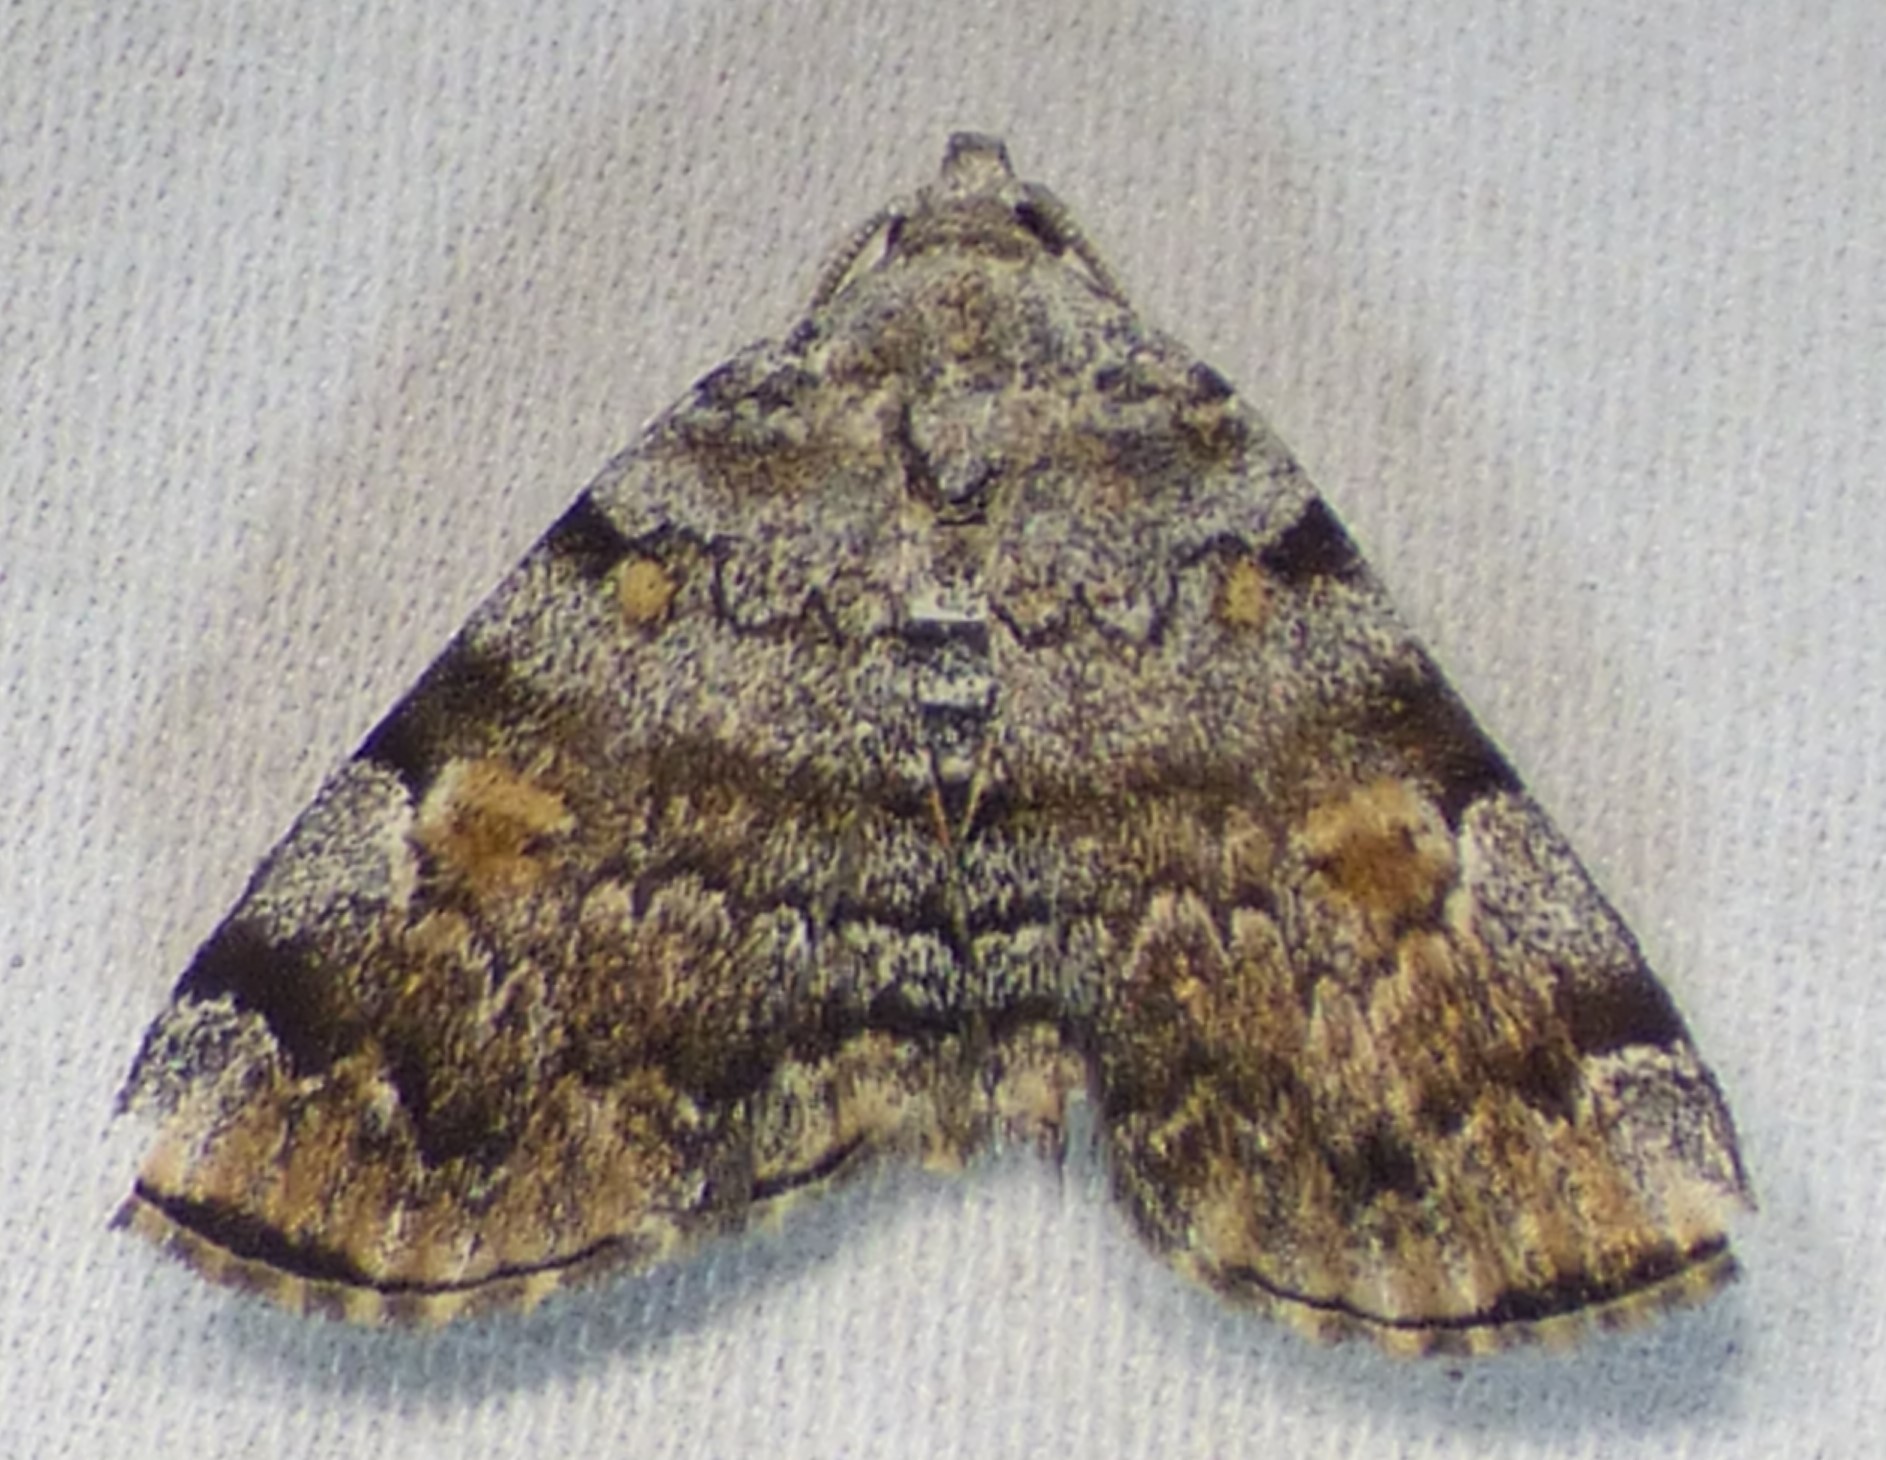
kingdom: Animalia
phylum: Arthropoda
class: Insecta
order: Lepidoptera
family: Erebidae
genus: Idia
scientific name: Idia americalis
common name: American idia moth
